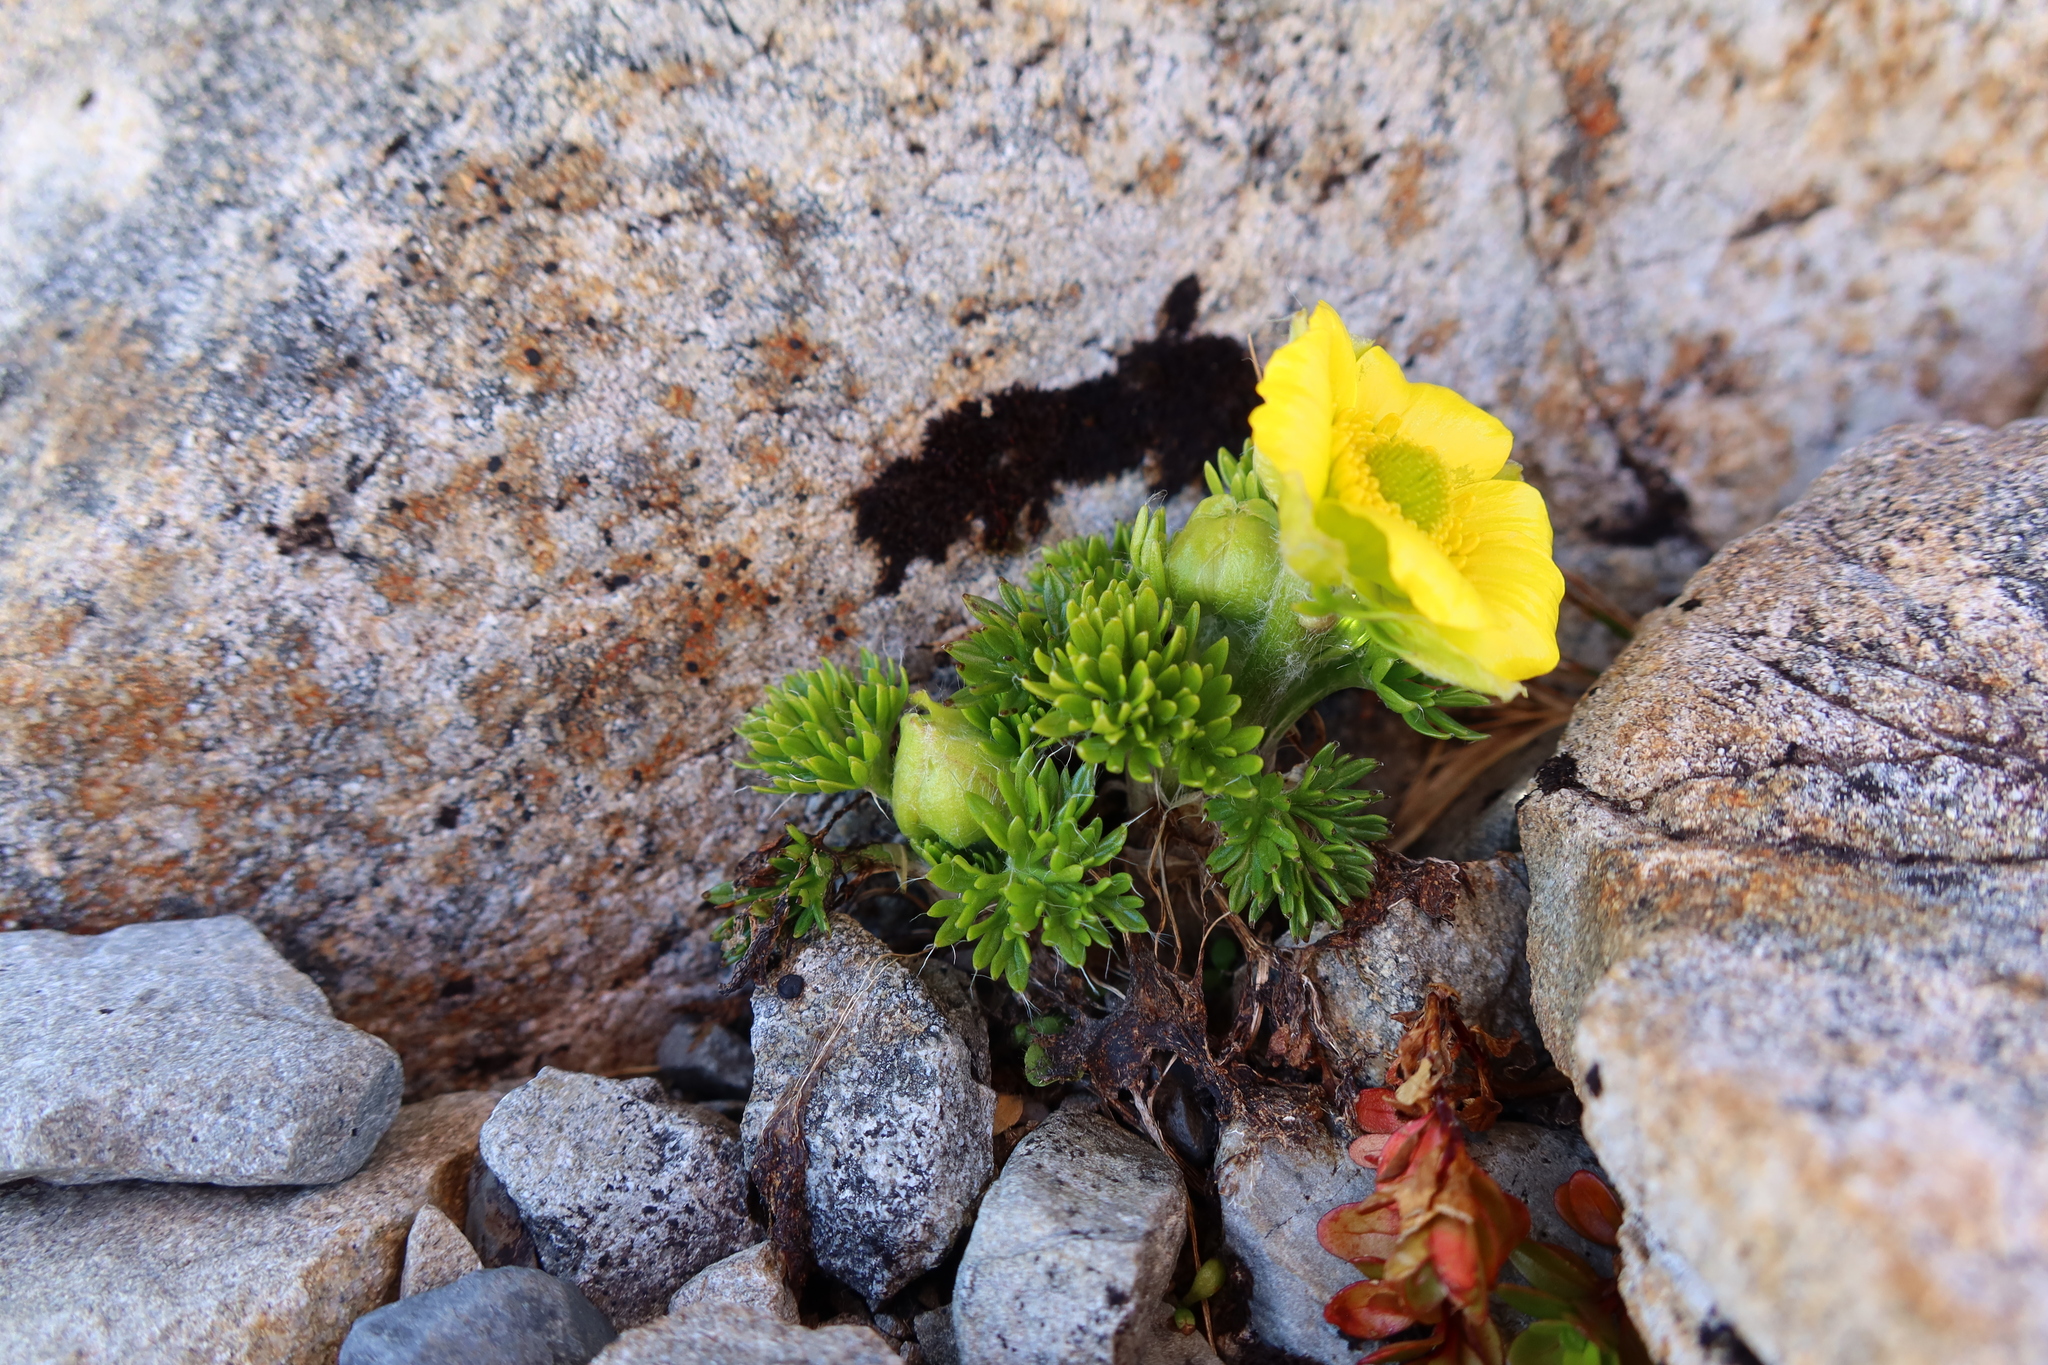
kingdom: Plantae
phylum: Tracheophyta
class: Magnoliopsida
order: Ranunculales
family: Ranunculaceae
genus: Ranunculus
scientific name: Ranunculus sericophyllus
